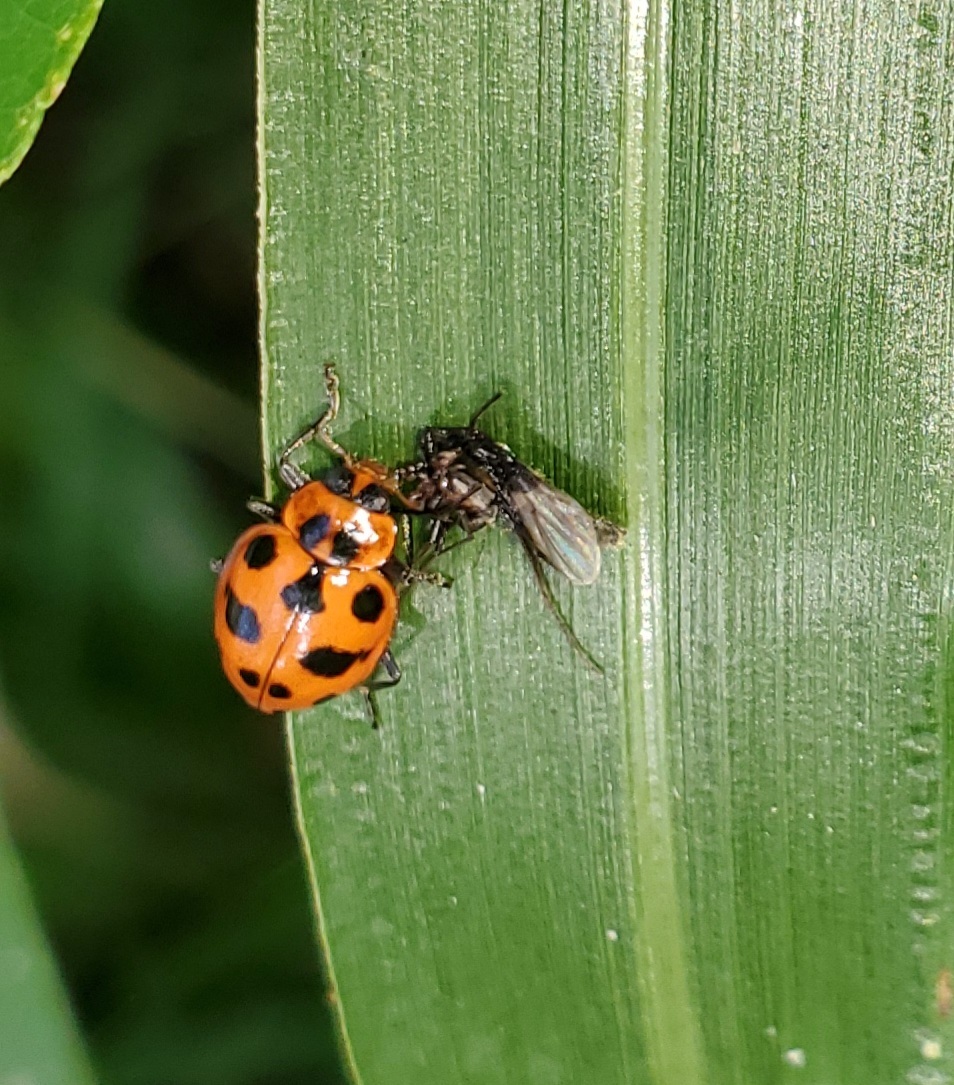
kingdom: Animalia
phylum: Arthropoda
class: Insecta
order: Coleoptera
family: Coccinellidae
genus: Coleomegilla
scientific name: Coleomegilla maculata
